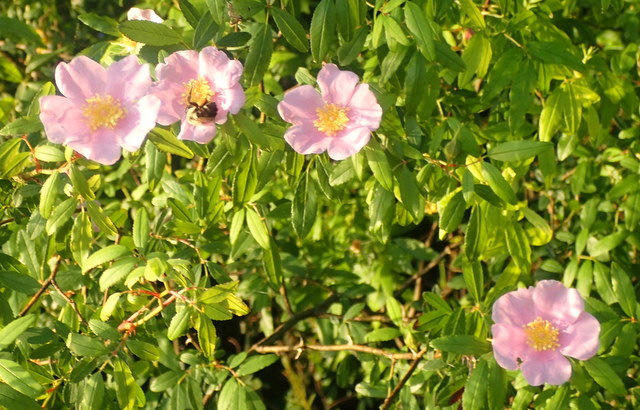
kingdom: Plantae
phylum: Tracheophyta
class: Magnoliopsida
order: Rosales
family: Rosaceae
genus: Rosa
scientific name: Rosa palustris
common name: Swamp rose
